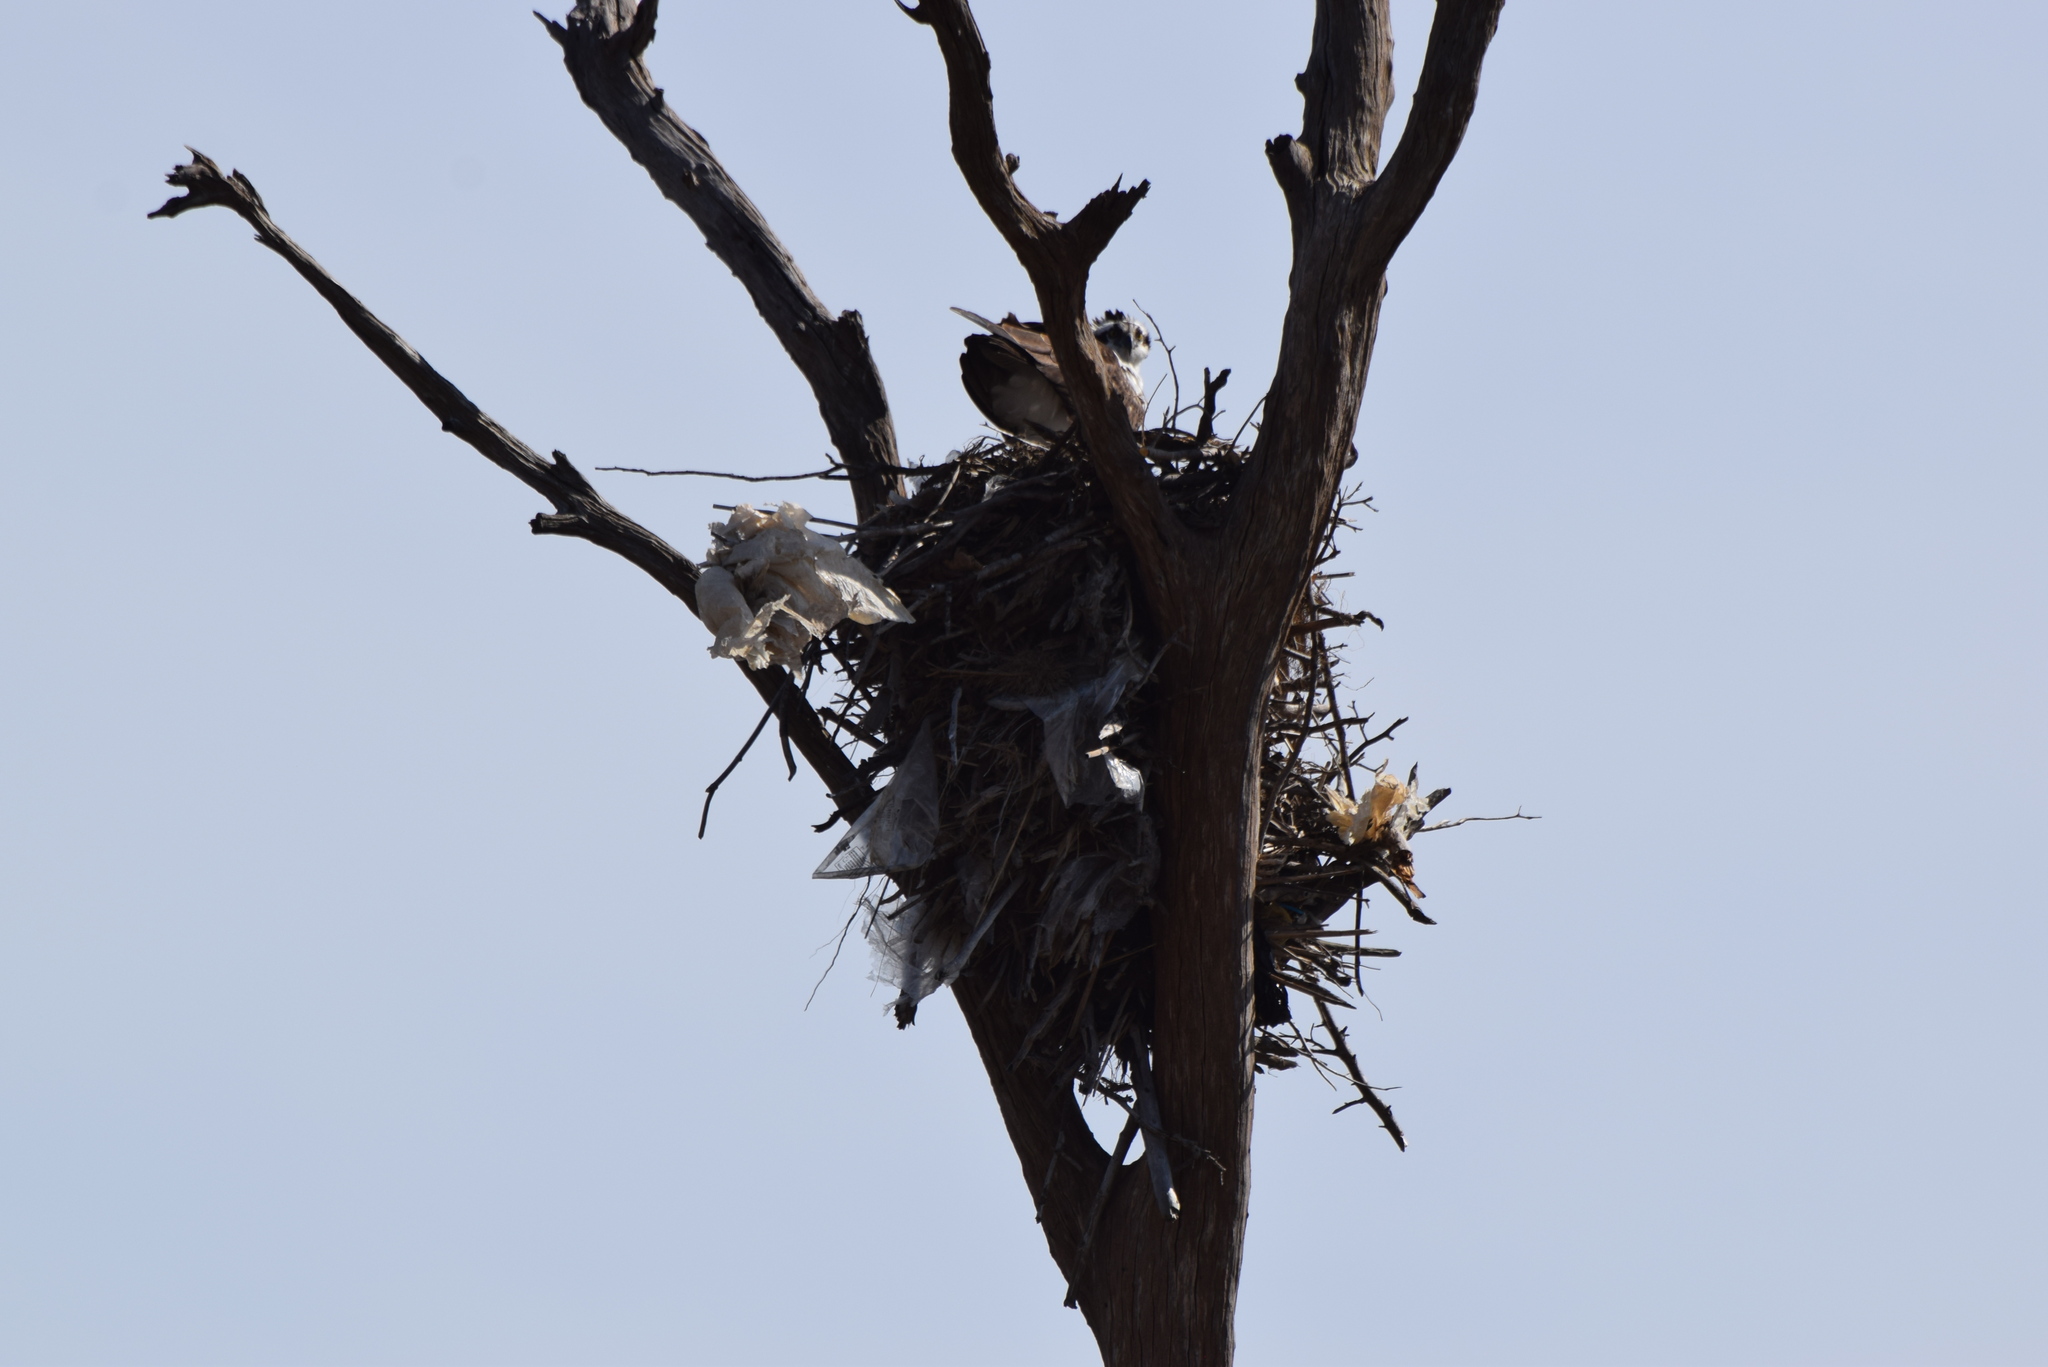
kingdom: Animalia
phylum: Chordata
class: Aves
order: Accipitriformes
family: Pandionidae
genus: Pandion
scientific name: Pandion haliaetus
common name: Osprey
